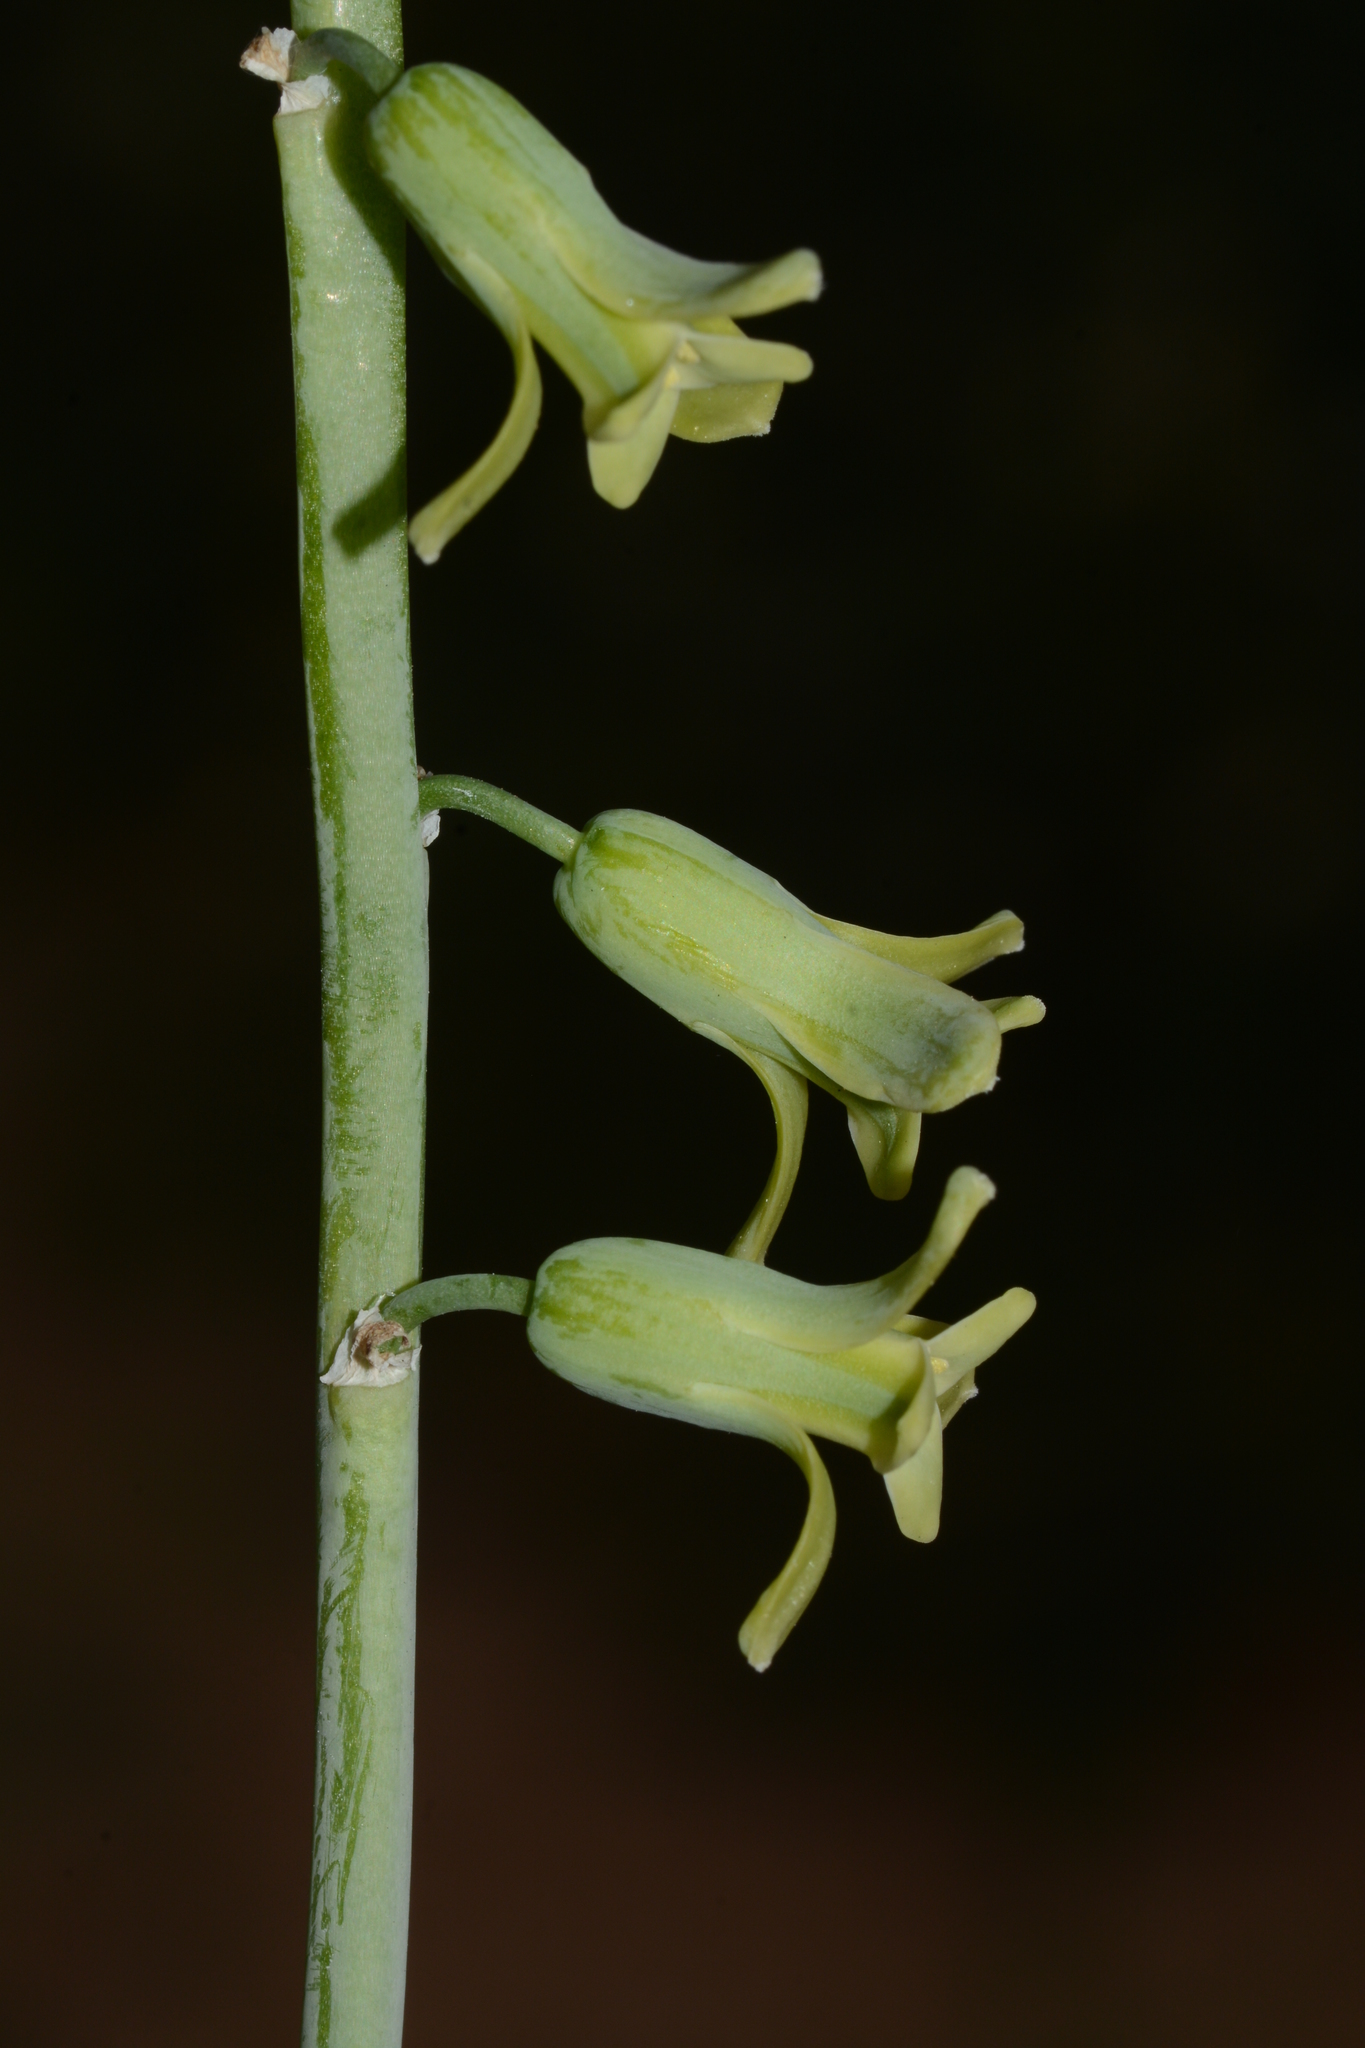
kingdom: Plantae
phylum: Tracheophyta
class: Liliopsida
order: Asparagales
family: Asparagaceae
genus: Dipcadi
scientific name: Dipcadi krishnadevarayae
